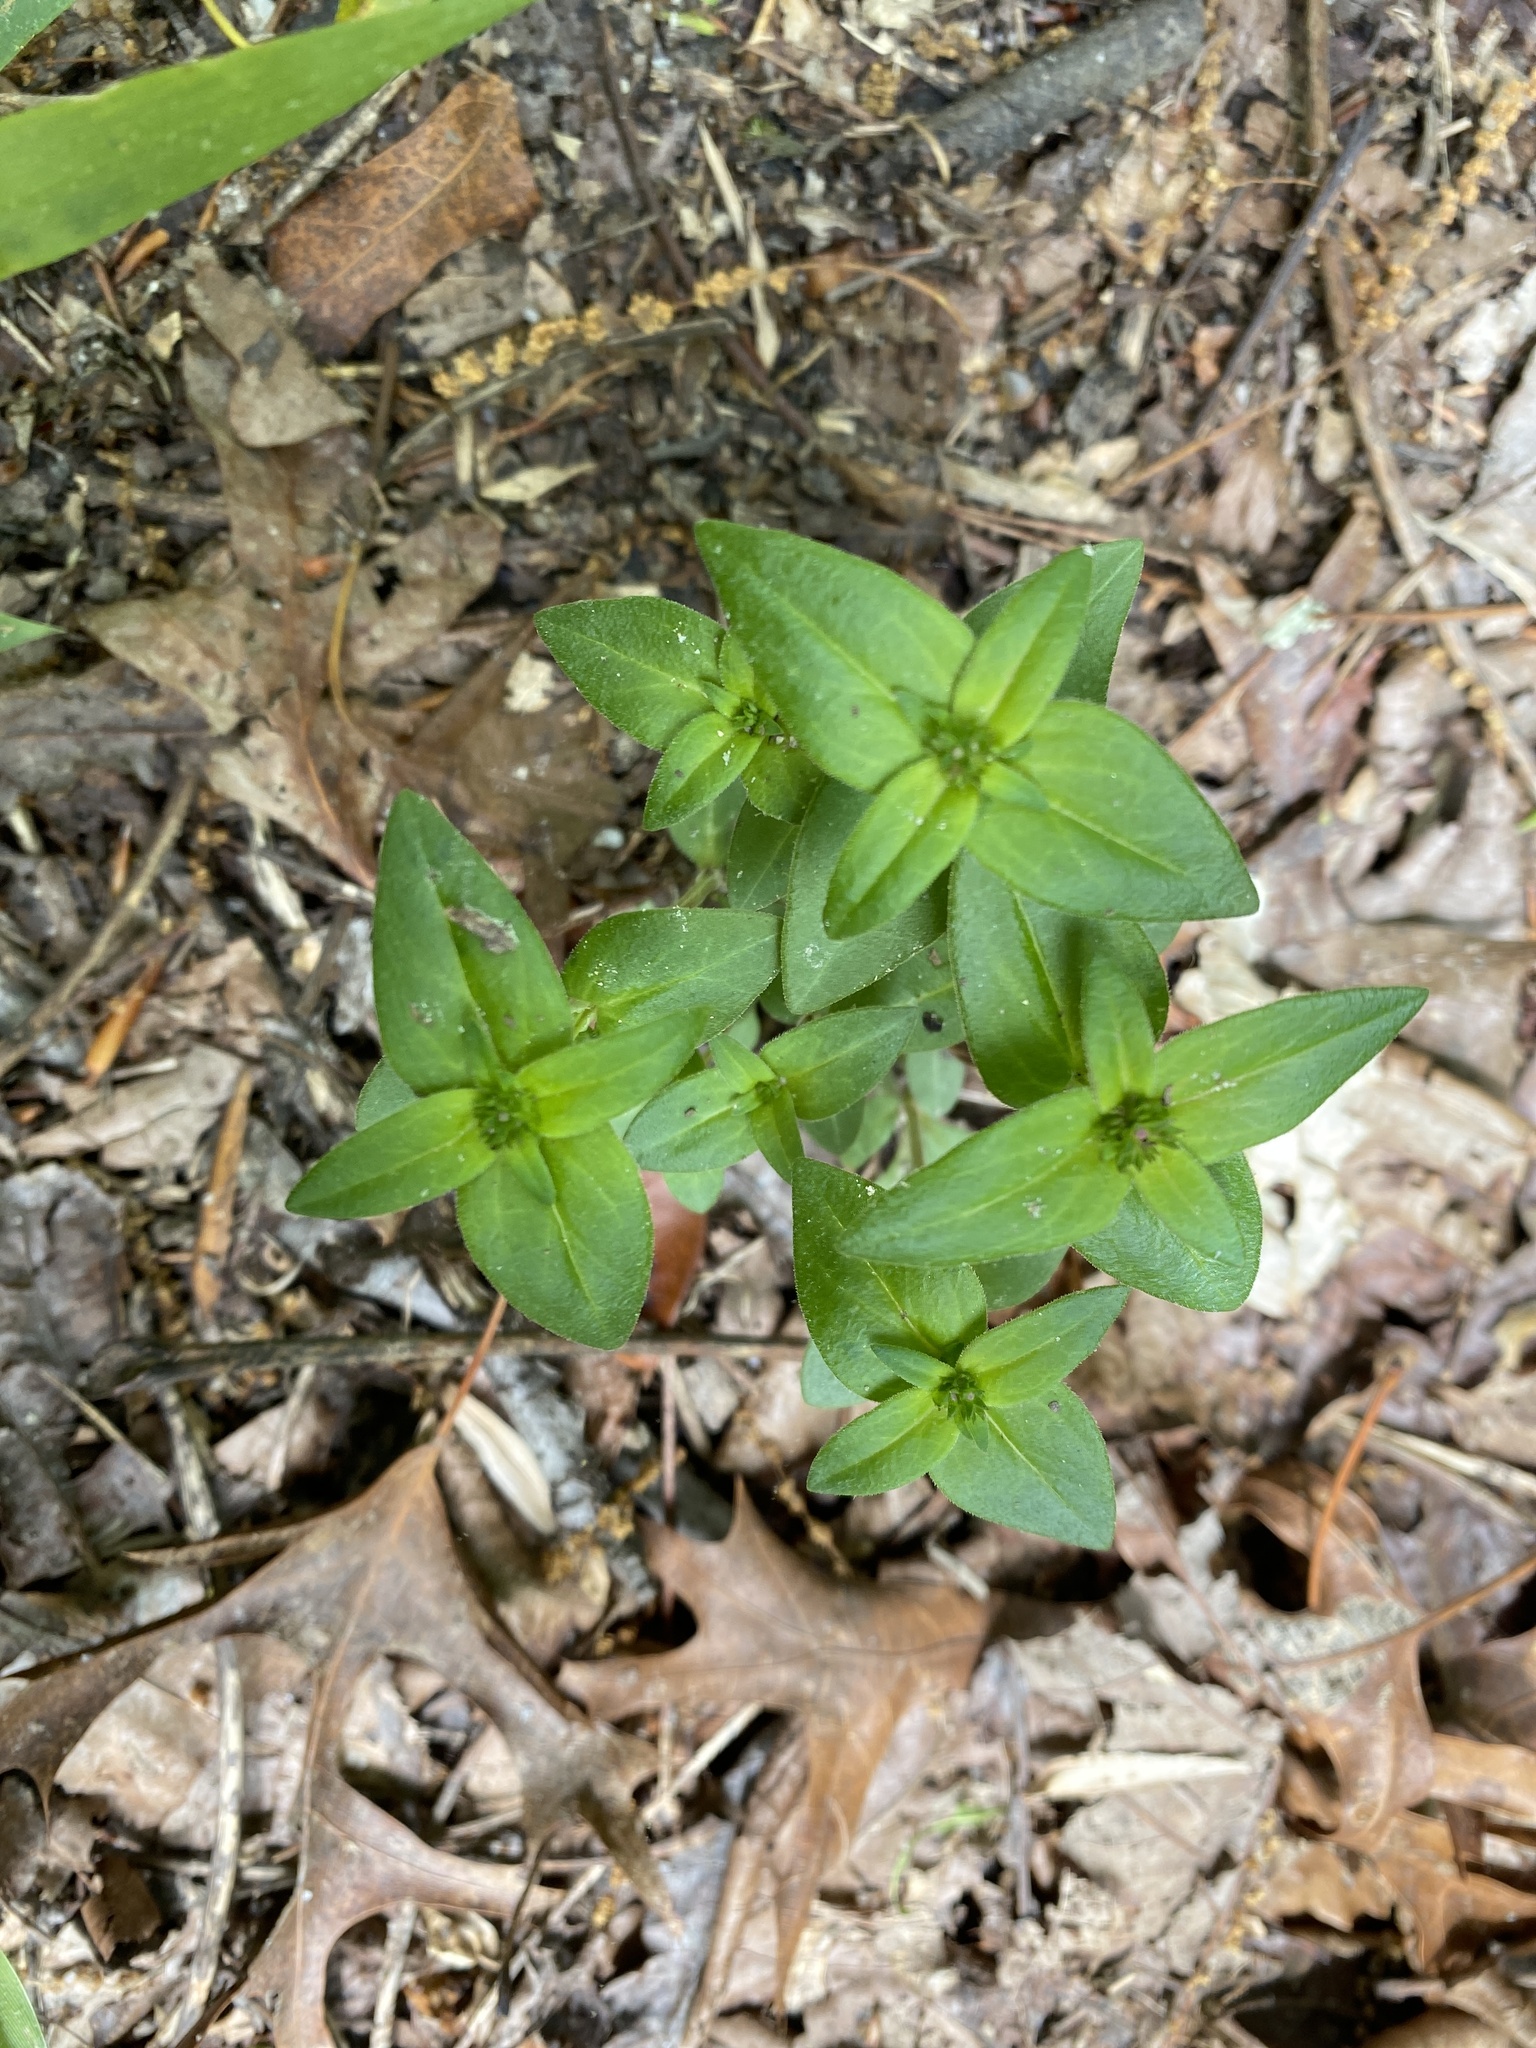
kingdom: Plantae
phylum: Tracheophyta
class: Magnoliopsida
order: Gentianales
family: Rubiaceae
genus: Houstonia
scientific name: Houstonia purpurea
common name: Summer bluet
